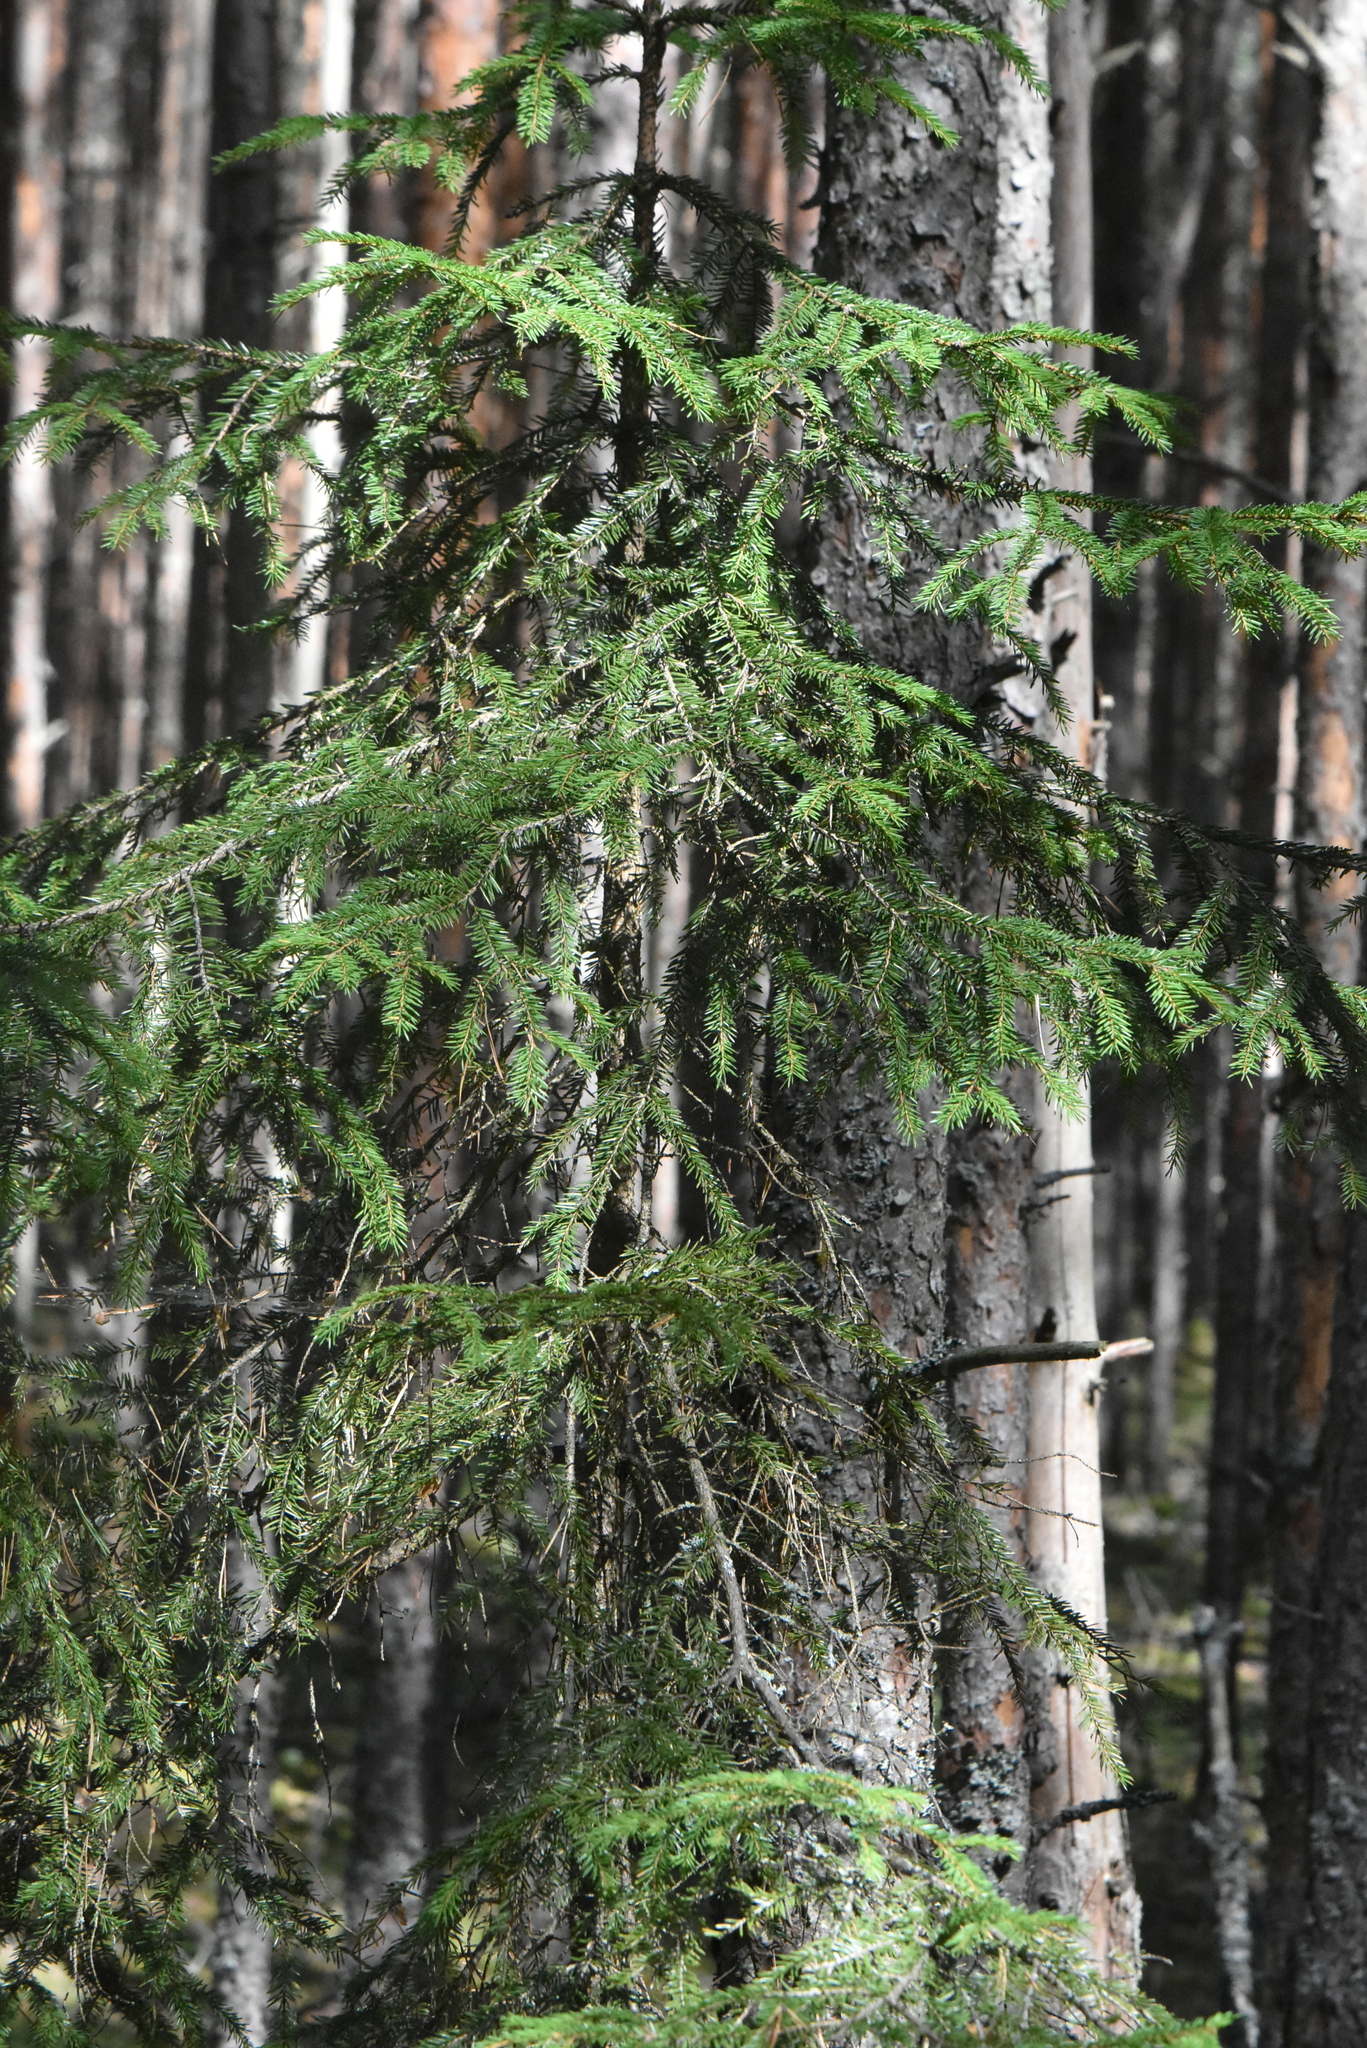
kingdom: Plantae
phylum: Tracheophyta
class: Pinopsida
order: Pinales
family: Pinaceae
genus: Picea
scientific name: Picea abies
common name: Norway spruce
